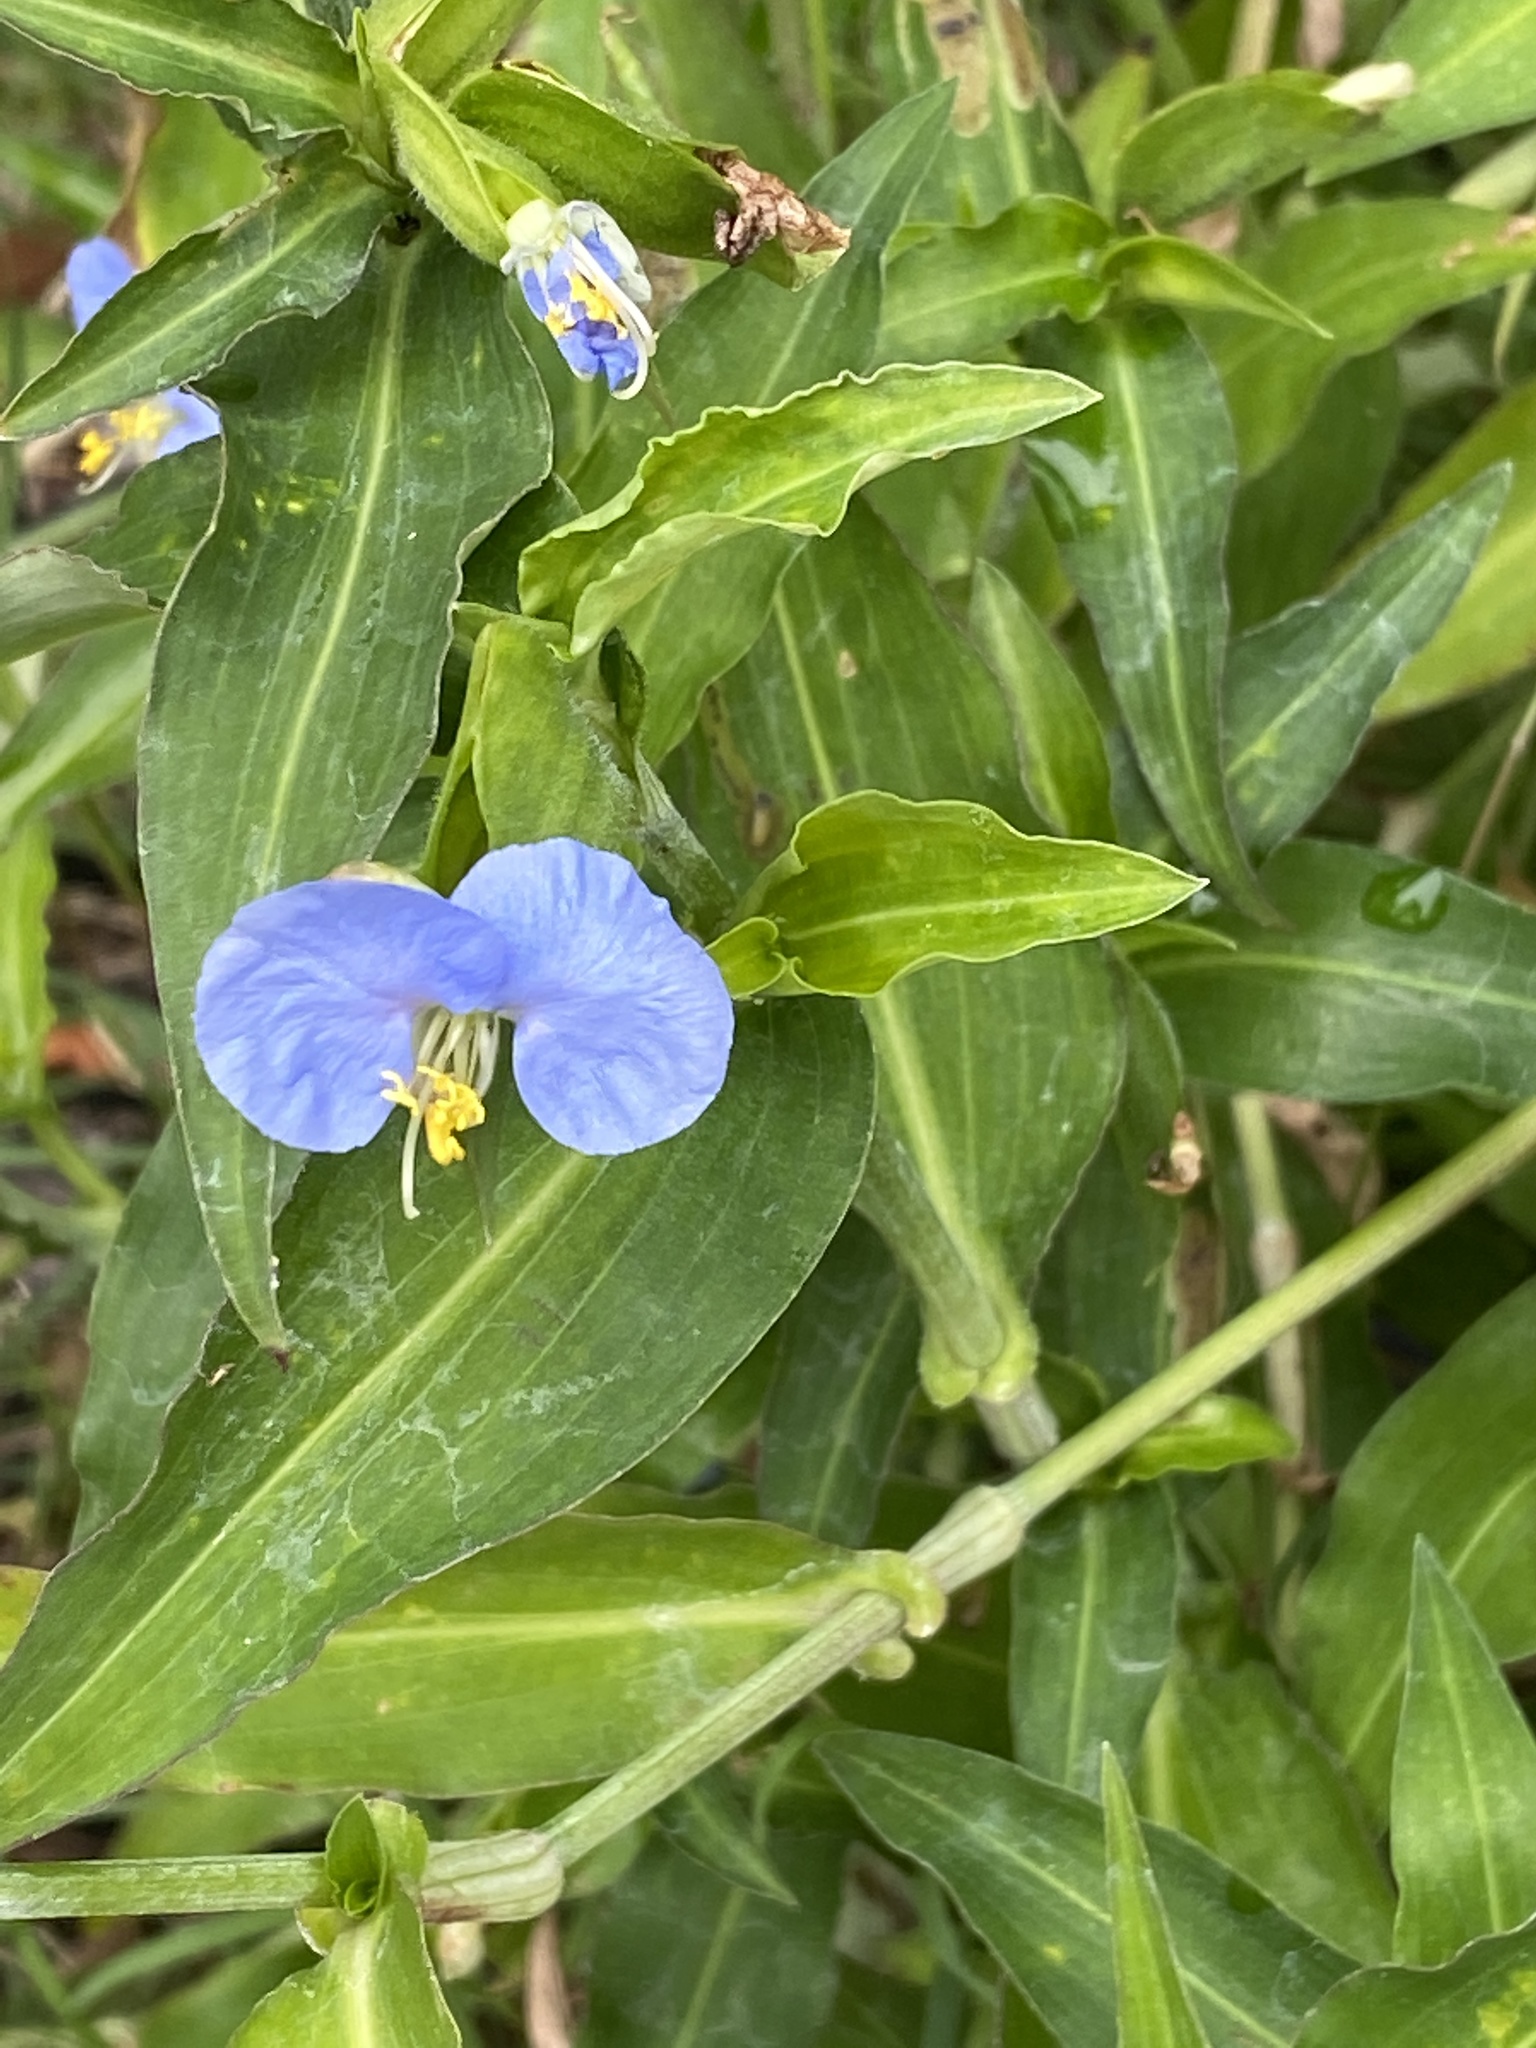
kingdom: Plantae
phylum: Tracheophyta
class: Liliopsida
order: Commelinales
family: Commelinaceae
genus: Commelina
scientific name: Commelina erecta
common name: Blousel blommetjie
